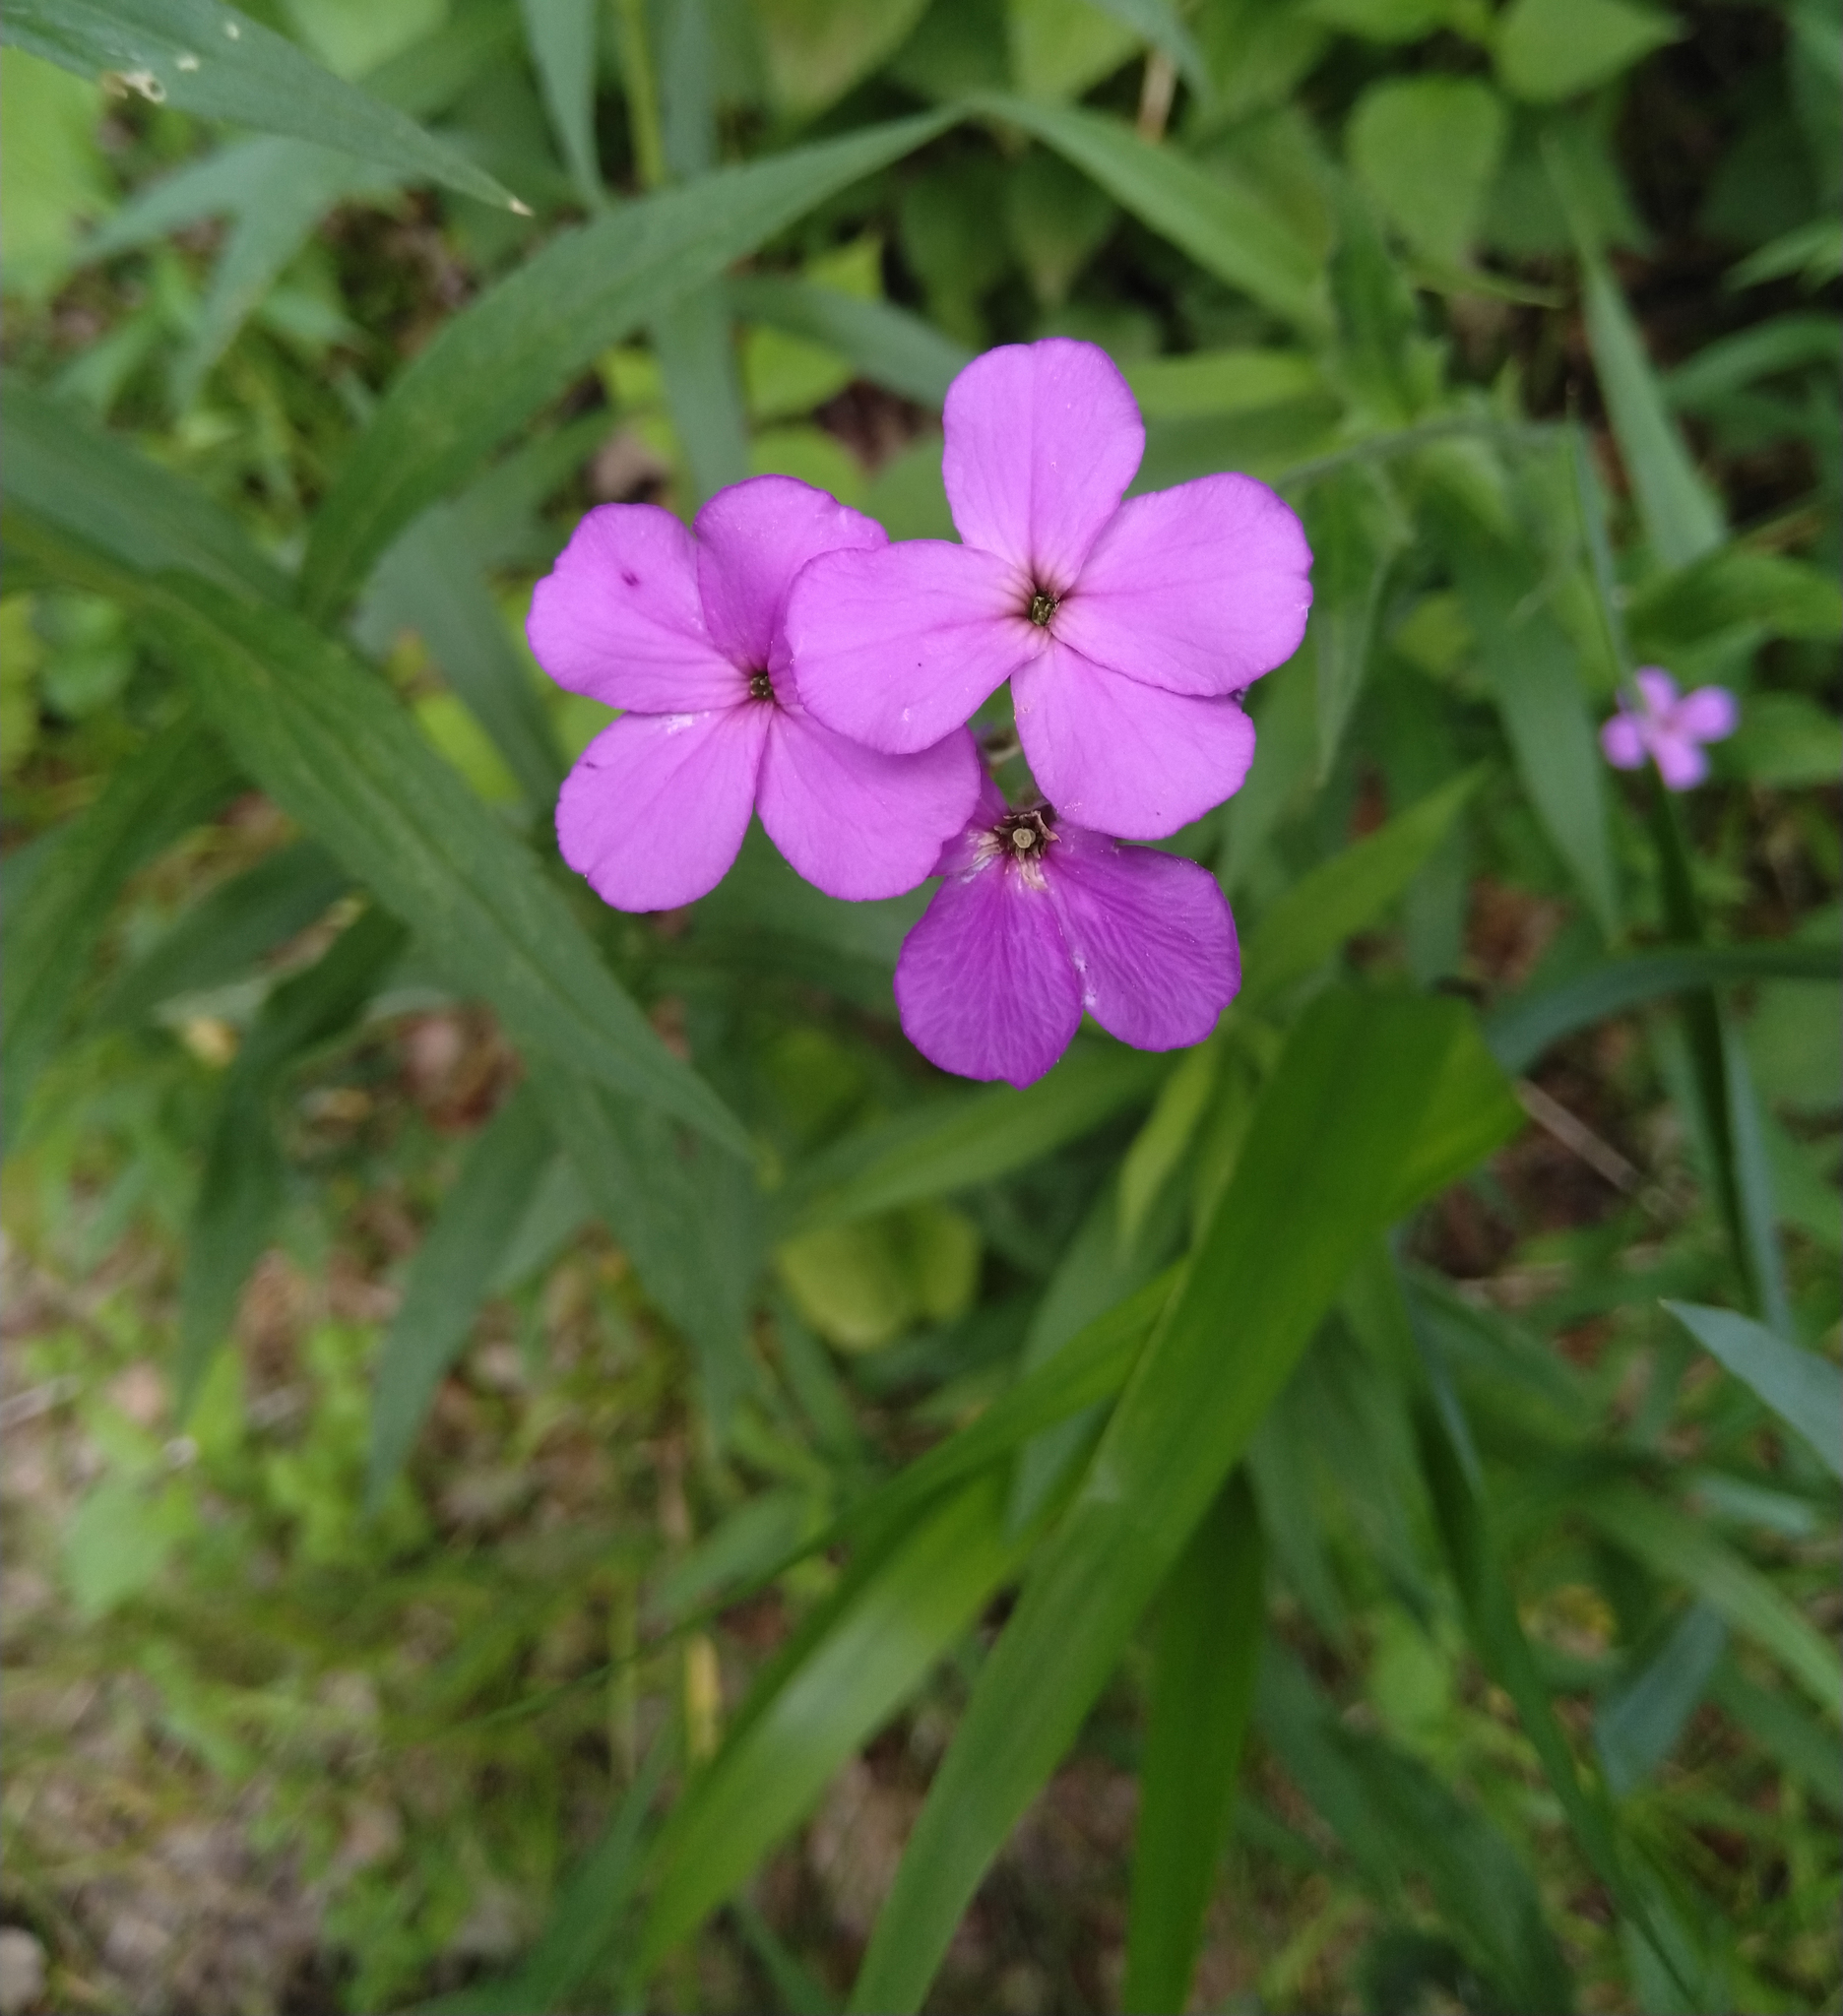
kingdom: Plantae
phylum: Tracheophyta
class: Magnoliopsida
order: Brassicales
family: Brassicaceae
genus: Hesperis
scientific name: Hesperis matronalis
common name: Dame's-violet
